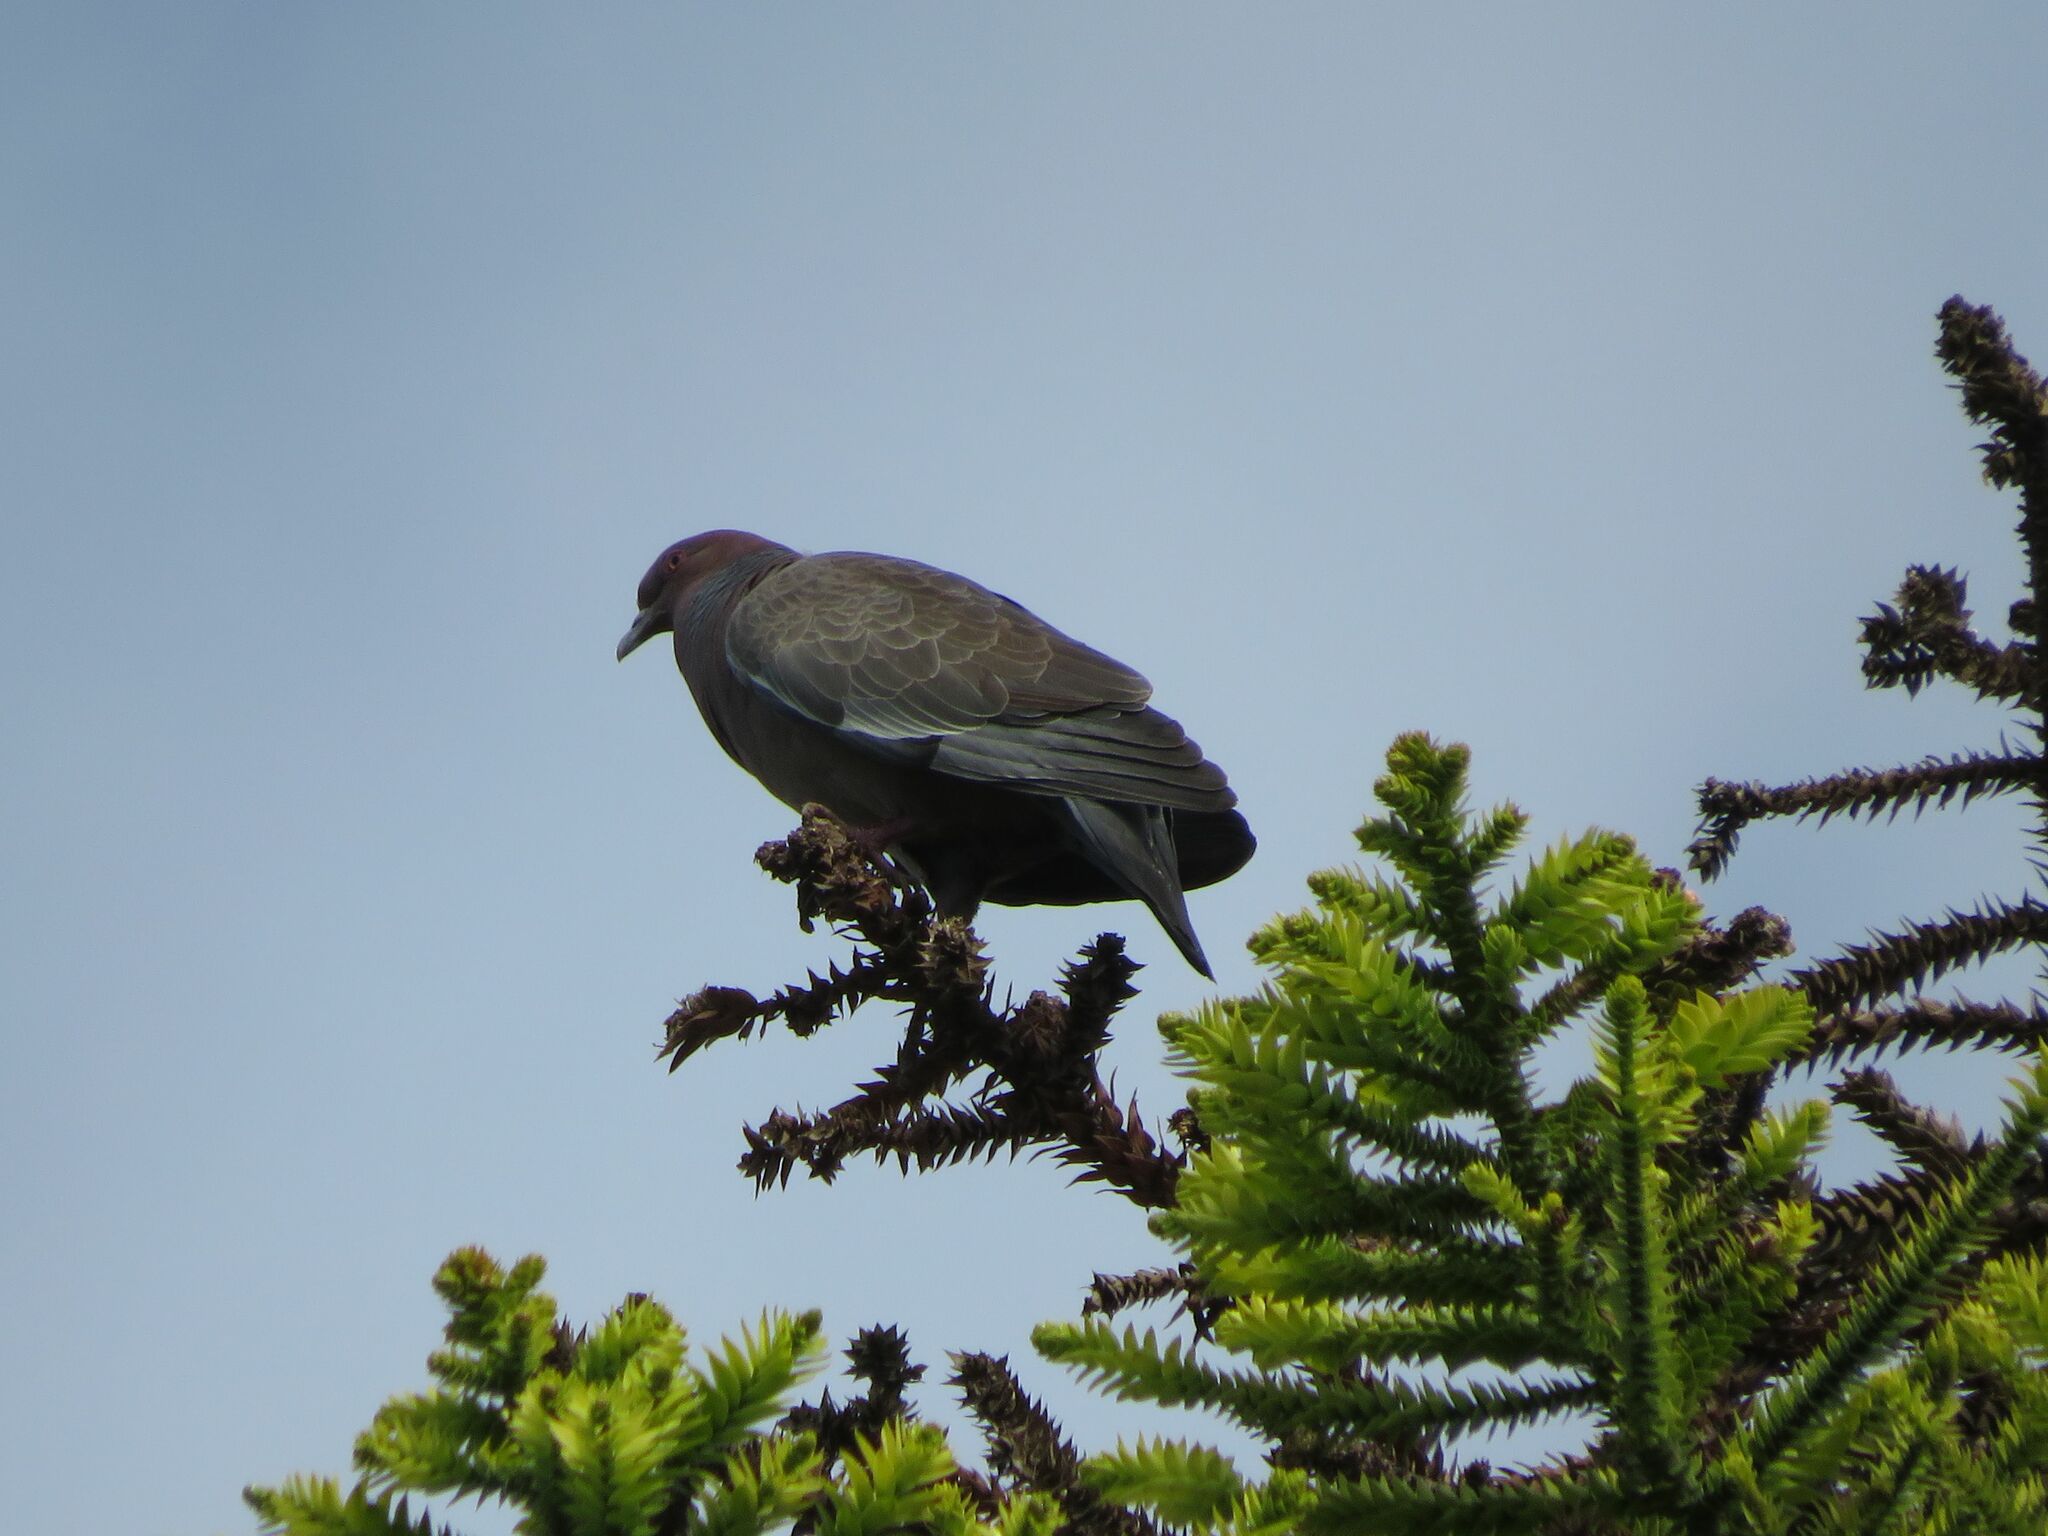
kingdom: Animalia
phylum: Chordata
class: Aves
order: Columbiformes
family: Columbidae
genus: Patagioenas
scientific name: Patagioenas picazuro
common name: Picazuro pigeon
